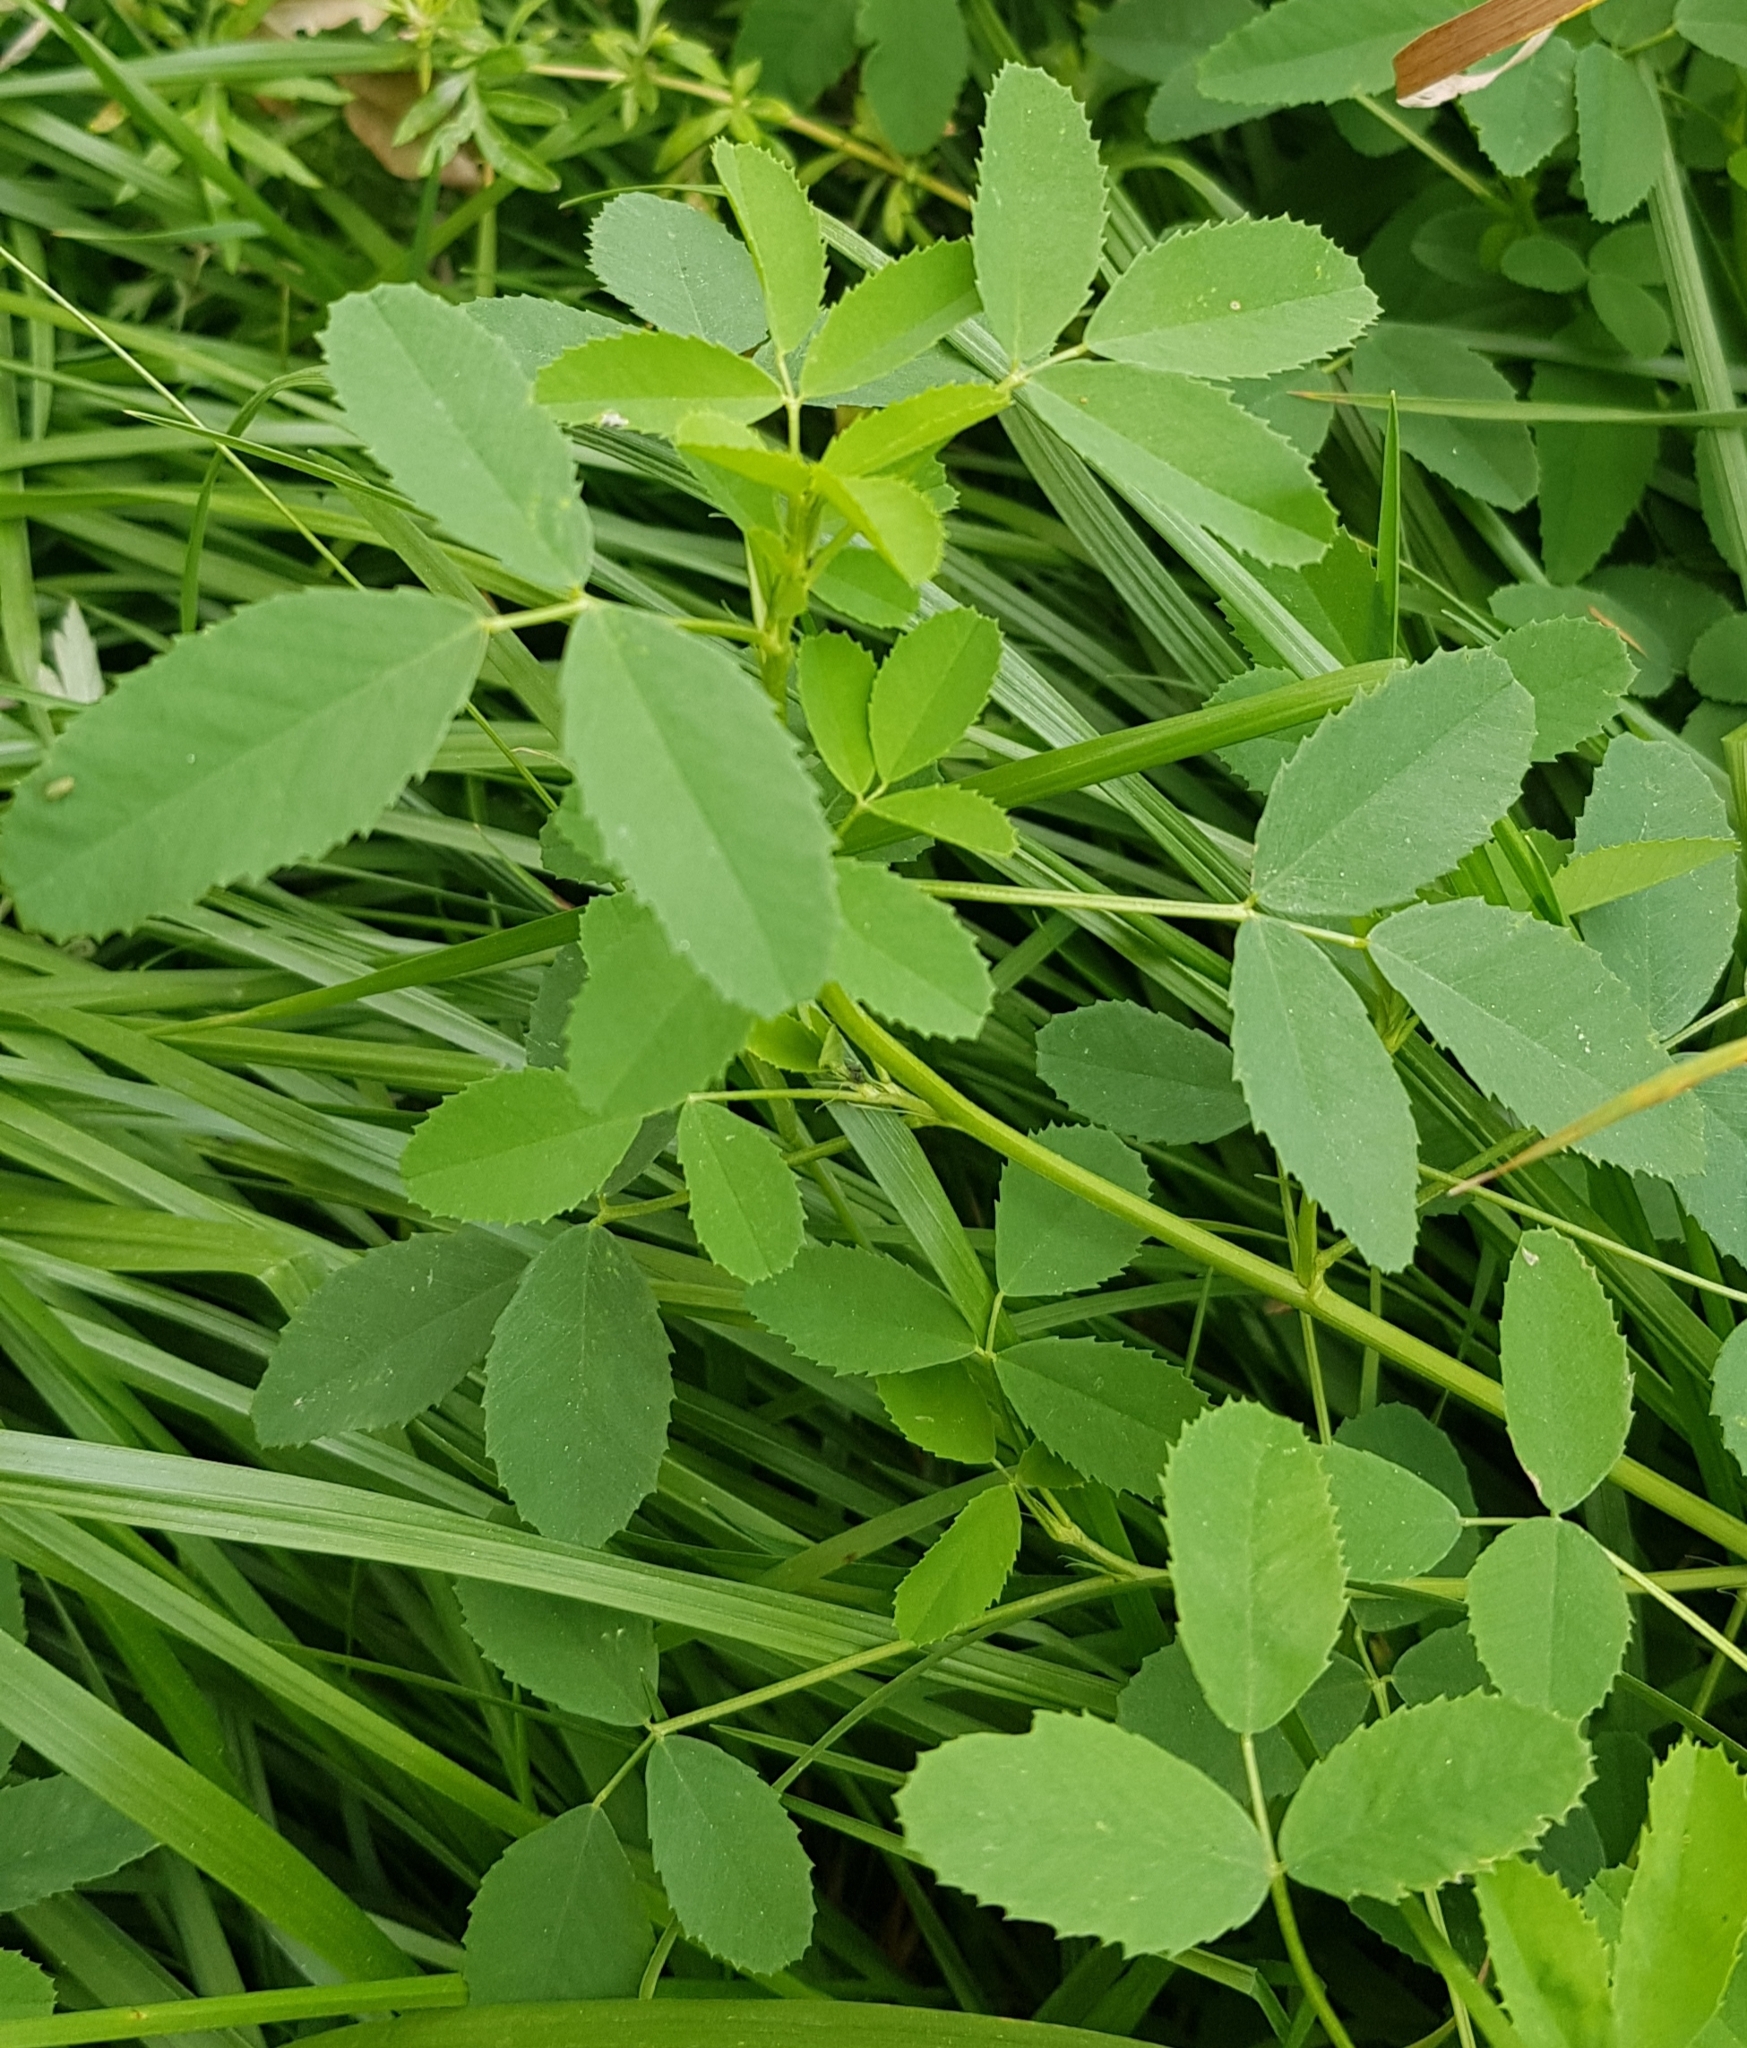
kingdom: Plantae
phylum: Tracheophyta
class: Magnoliopsida
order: Fabales
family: Fabaceae
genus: Melilotus
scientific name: Melilotus suaveolens
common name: Daghestan sweet-clover
